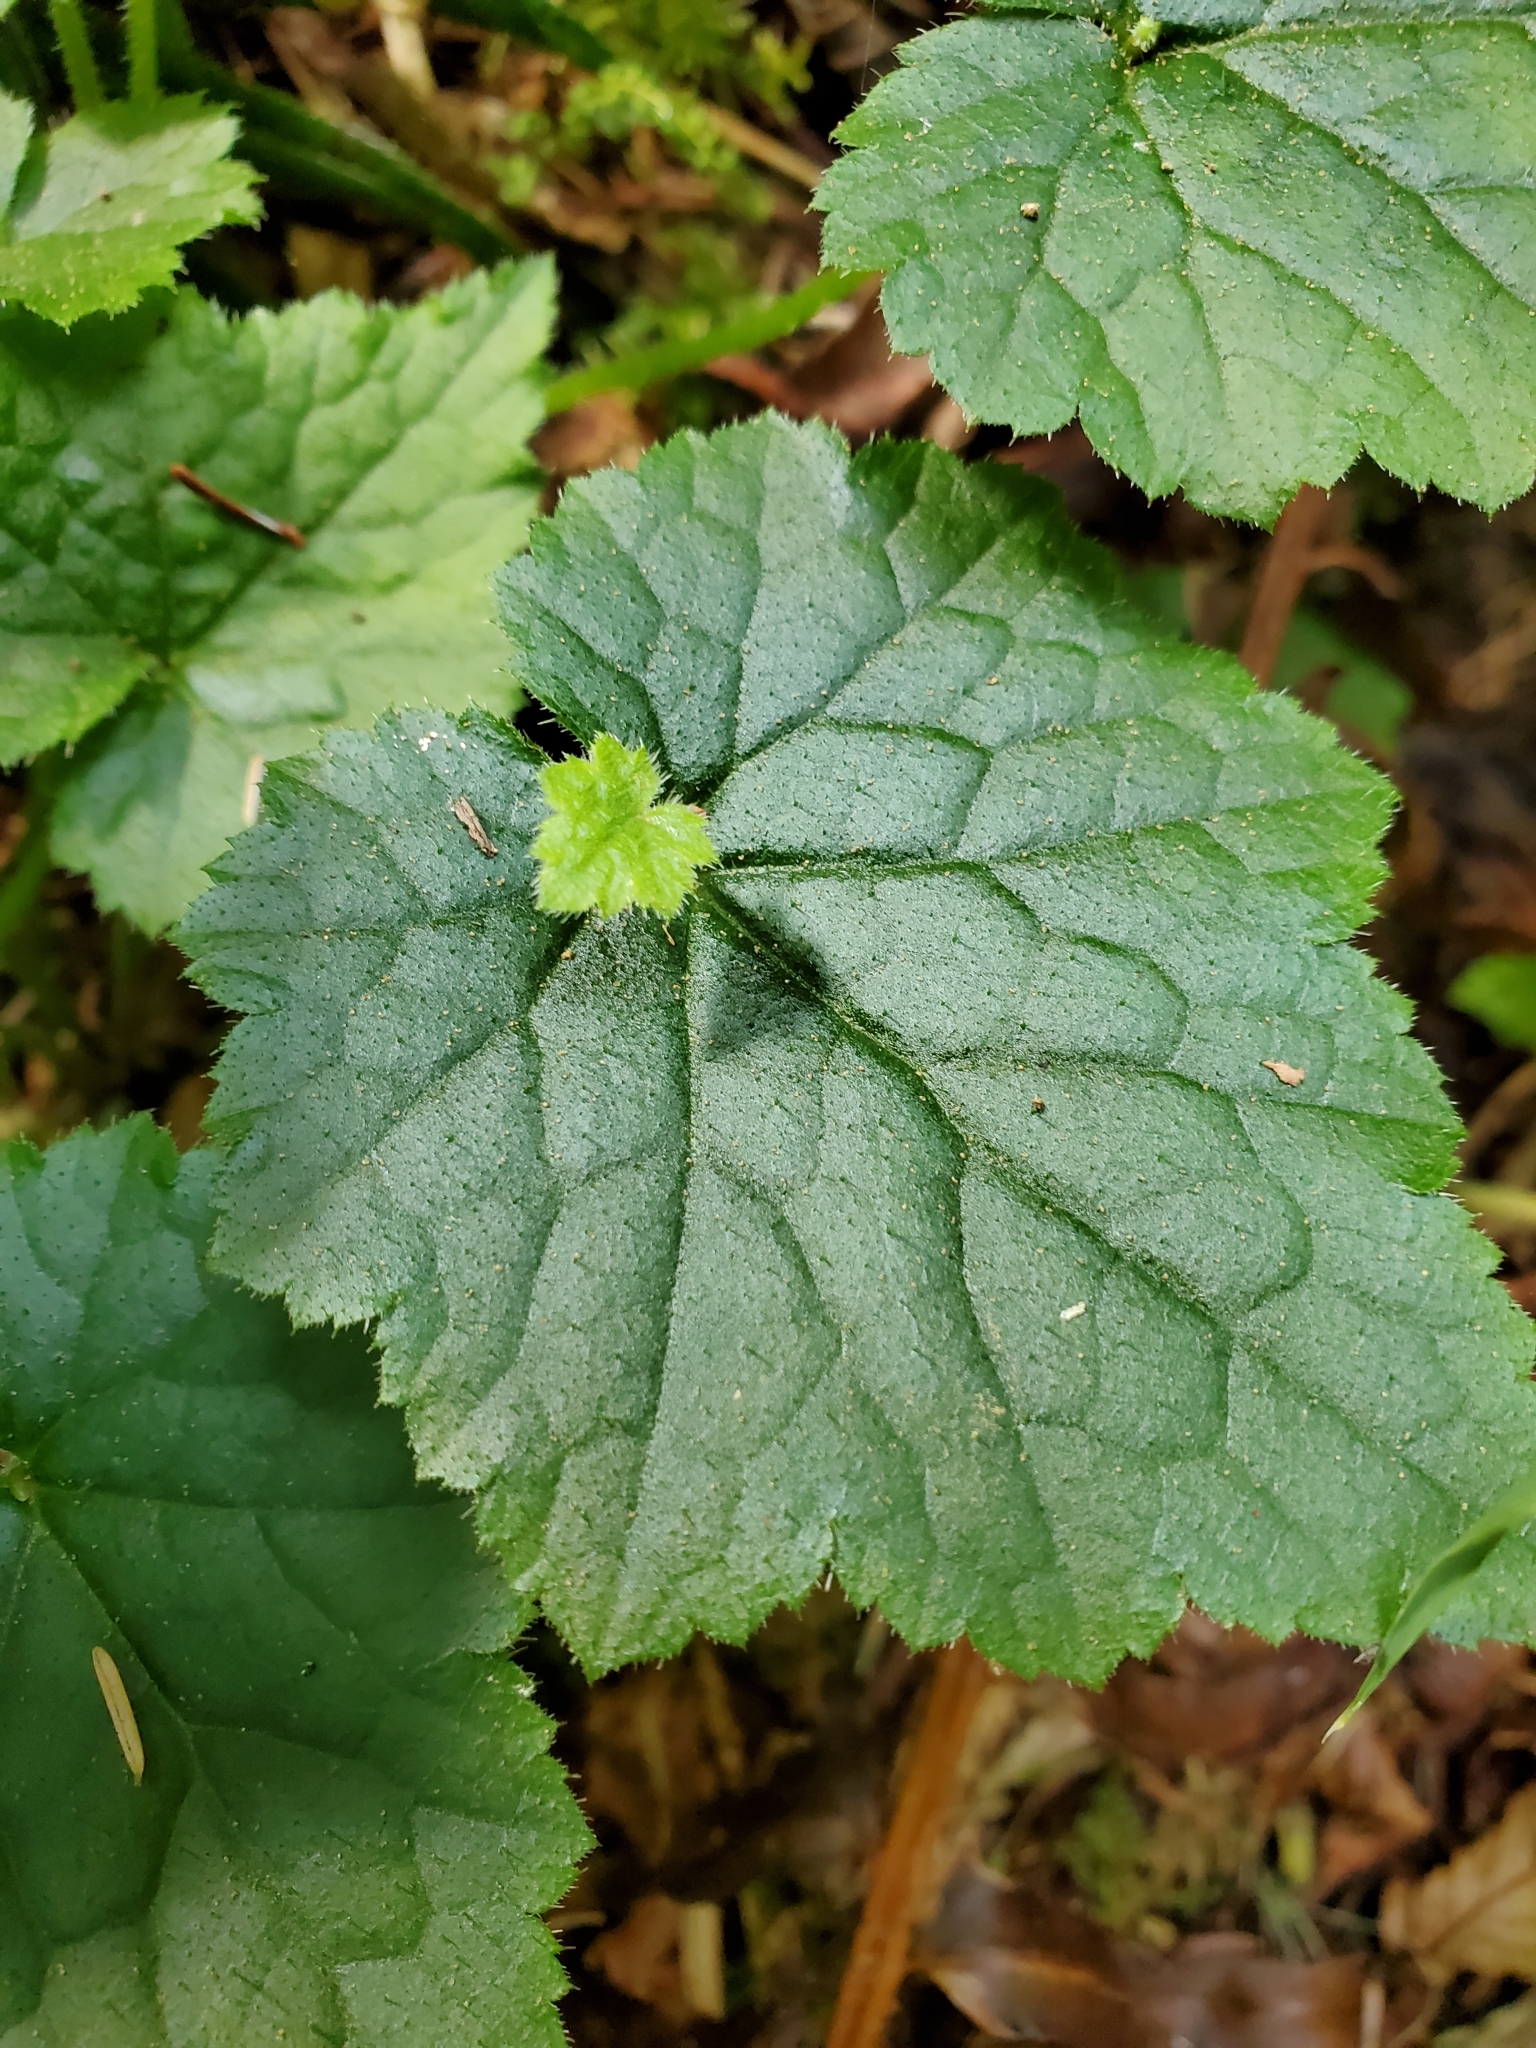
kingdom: Plantae
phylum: Tracheophyta
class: Magnoliopsida
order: Saxifragales
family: Saxifragaceae
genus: Tolmiea
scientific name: Tolmiea menziesii
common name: Pick-a-back-plant
